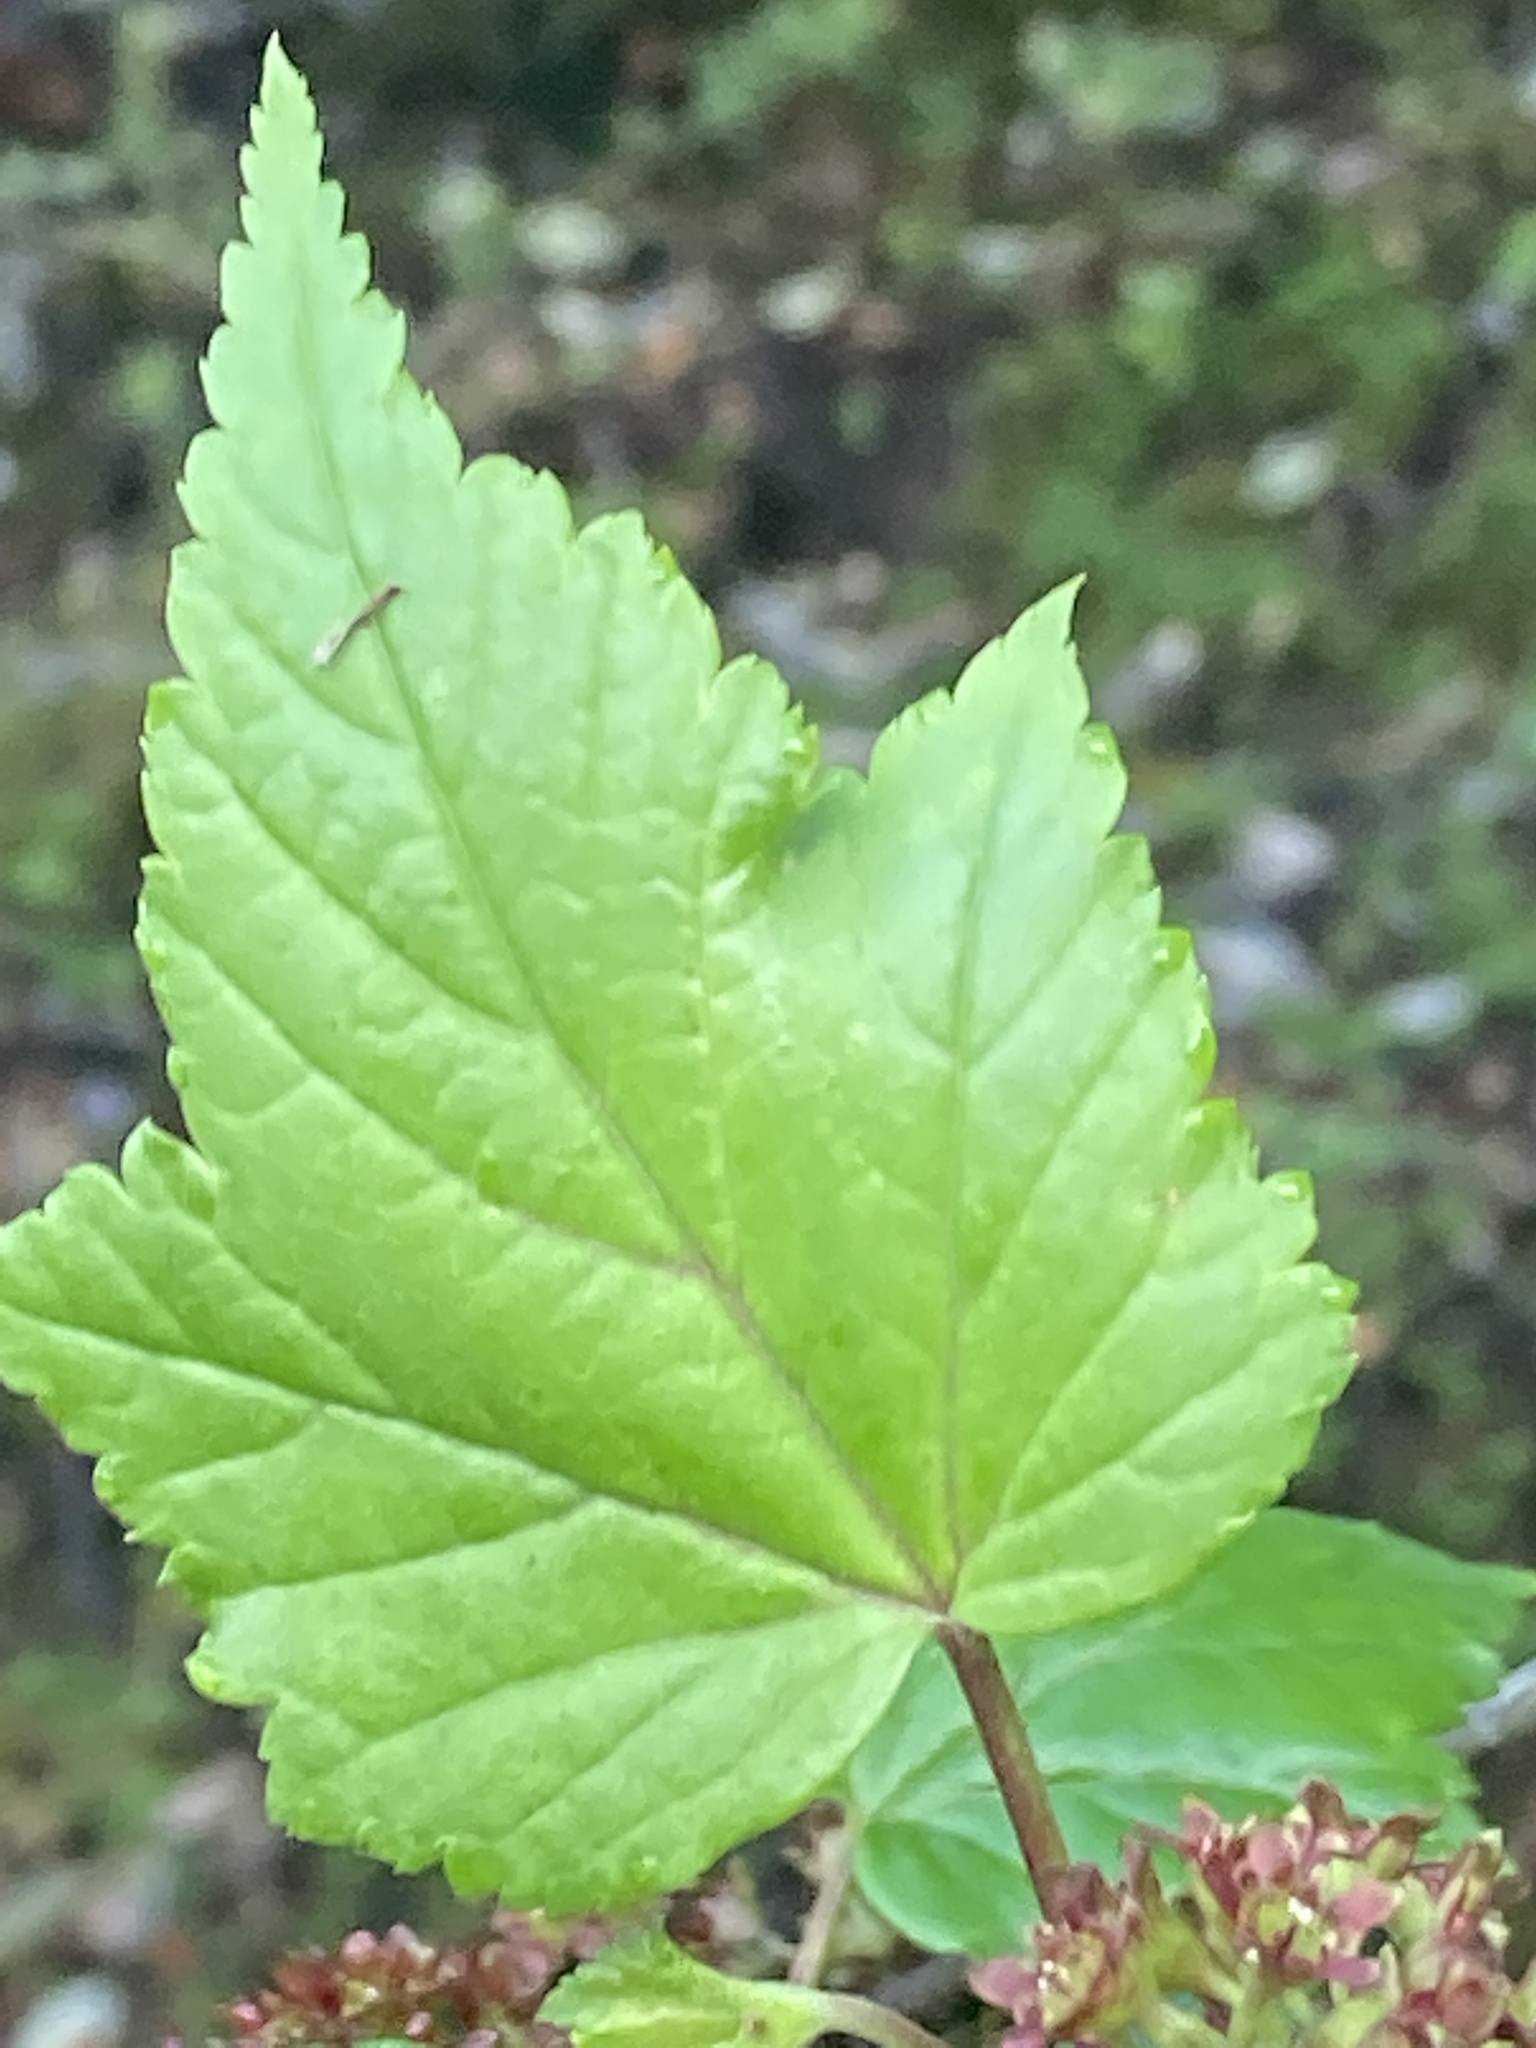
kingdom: Plantae
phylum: Tracheophyta
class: Magnoliopsida
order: Sapindales
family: Sapindaceae
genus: Acer
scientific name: Acer pectinatum
